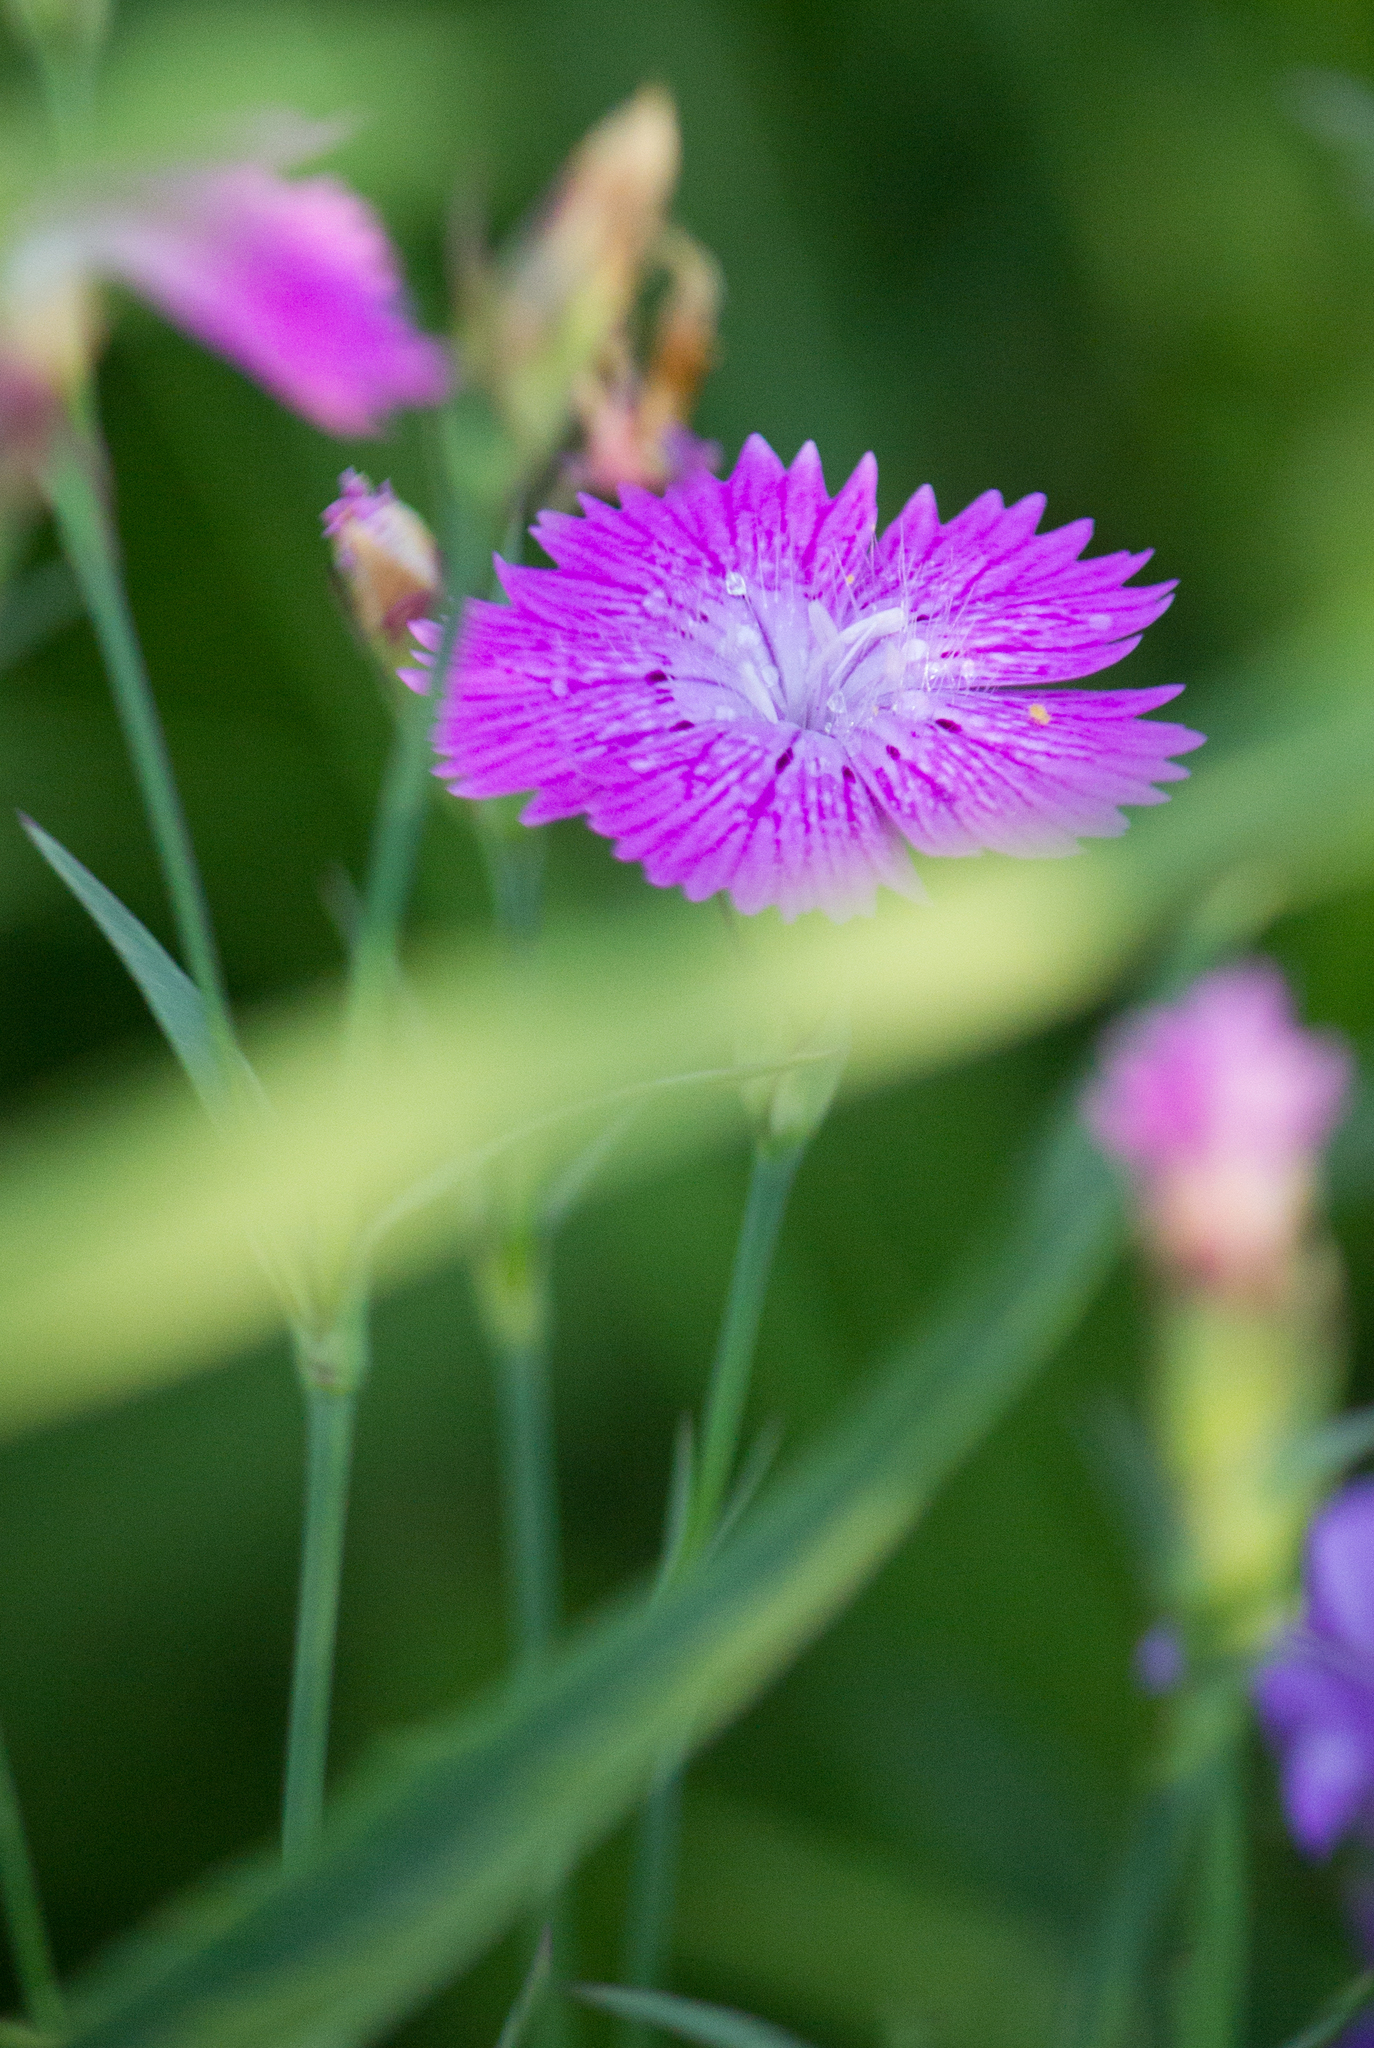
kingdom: Plantae
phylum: Tracheophyta
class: Magnoliopsida
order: Caryophyllales
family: Caryophyllaceae
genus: Dianthus
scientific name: Dianthus chinensis
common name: Rainbow pink
